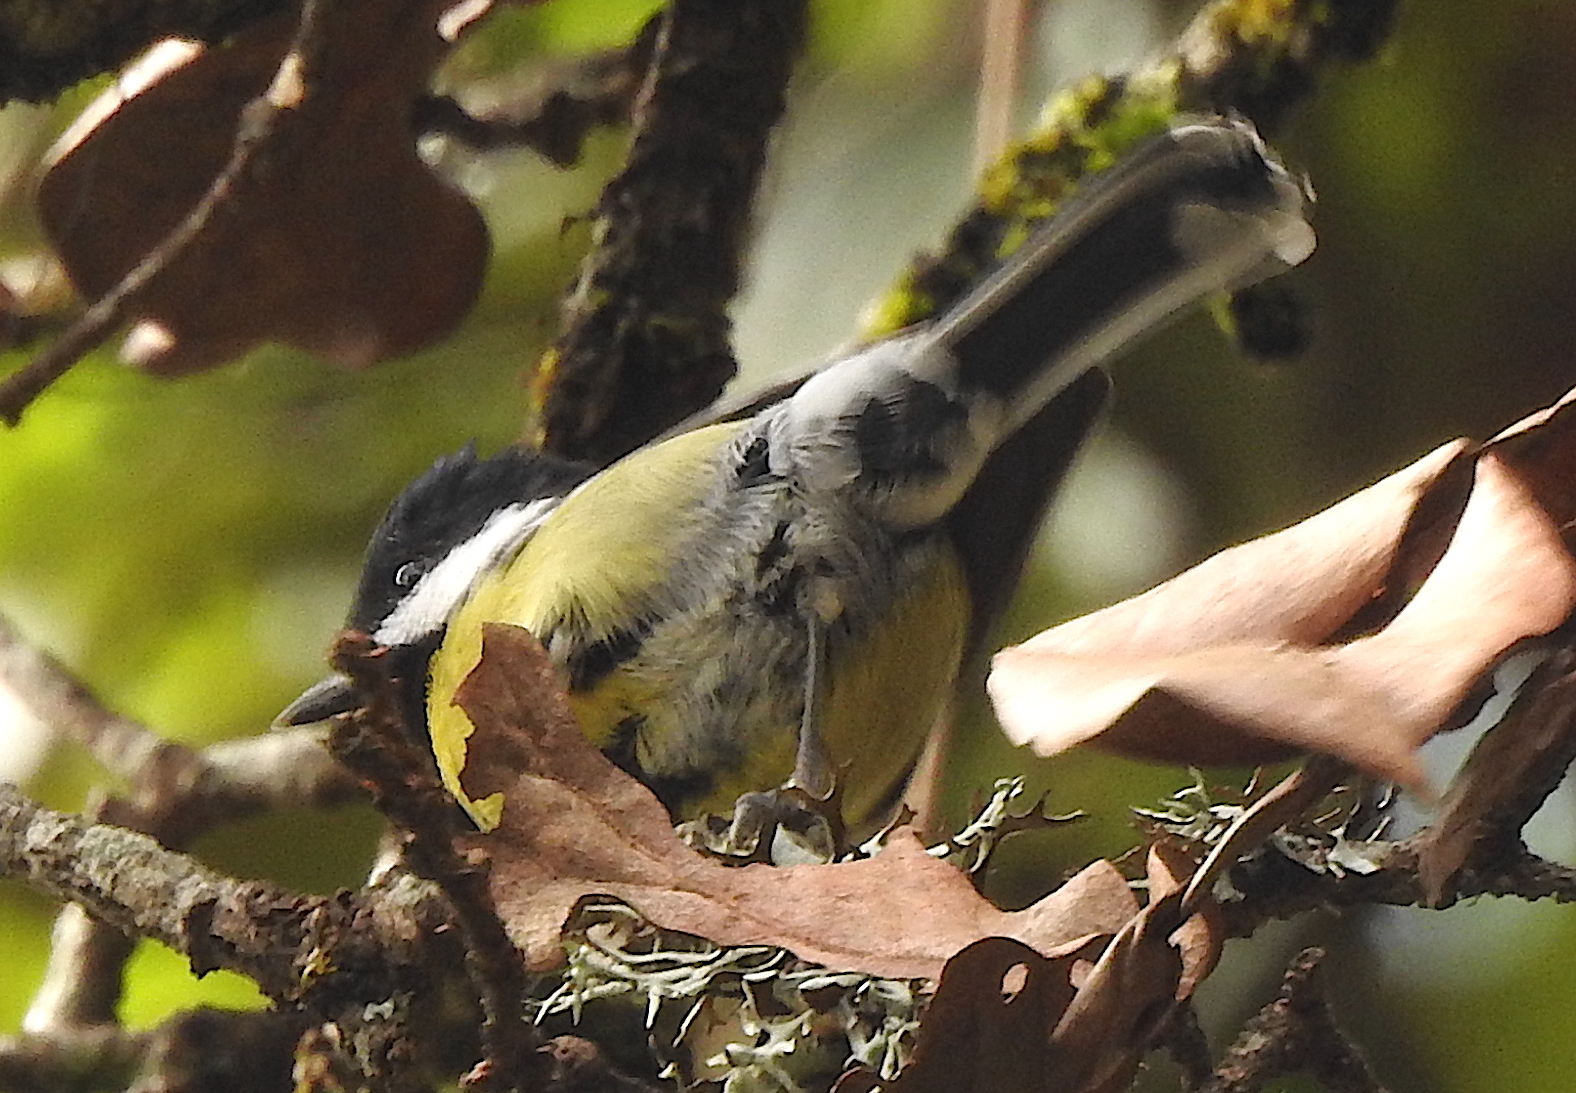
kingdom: Animalia
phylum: Chordata
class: Aves
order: Passeriformes
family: Paridae
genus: Parus
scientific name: Parus monticolus
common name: Green-backed tit
